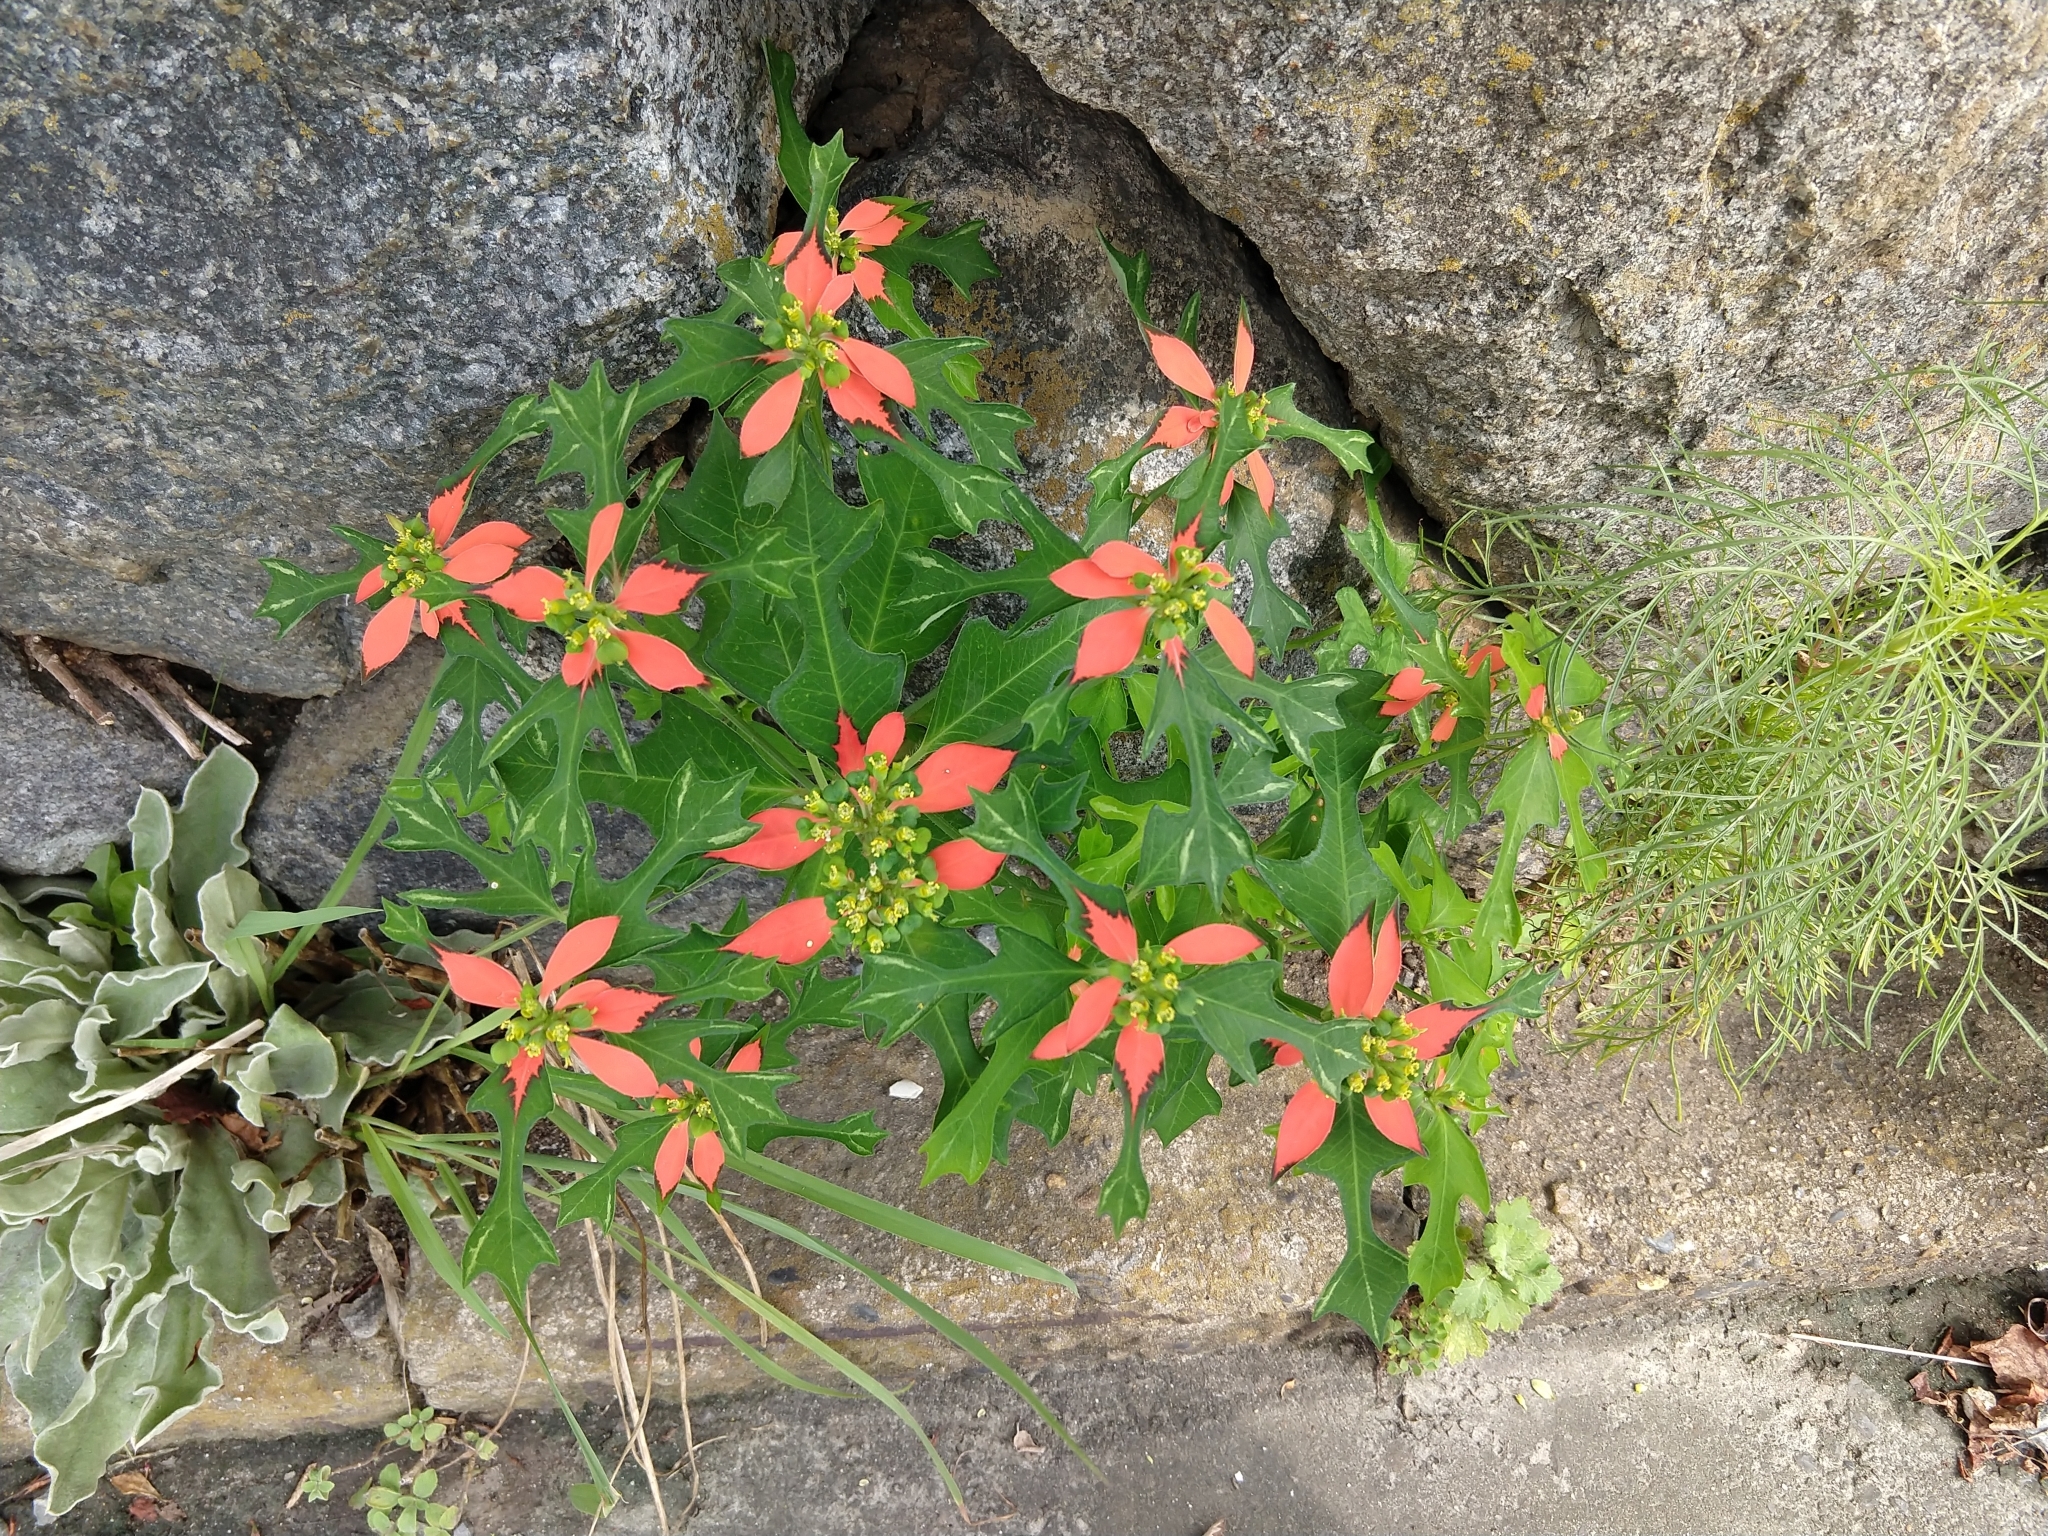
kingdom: Plantae
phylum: Tracheophyta
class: Magnoliopsida
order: Malpighiales
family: Euphorbiaceae
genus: Euphorbia
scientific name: Euphorbia heterophylla
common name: Mexican fireplant
